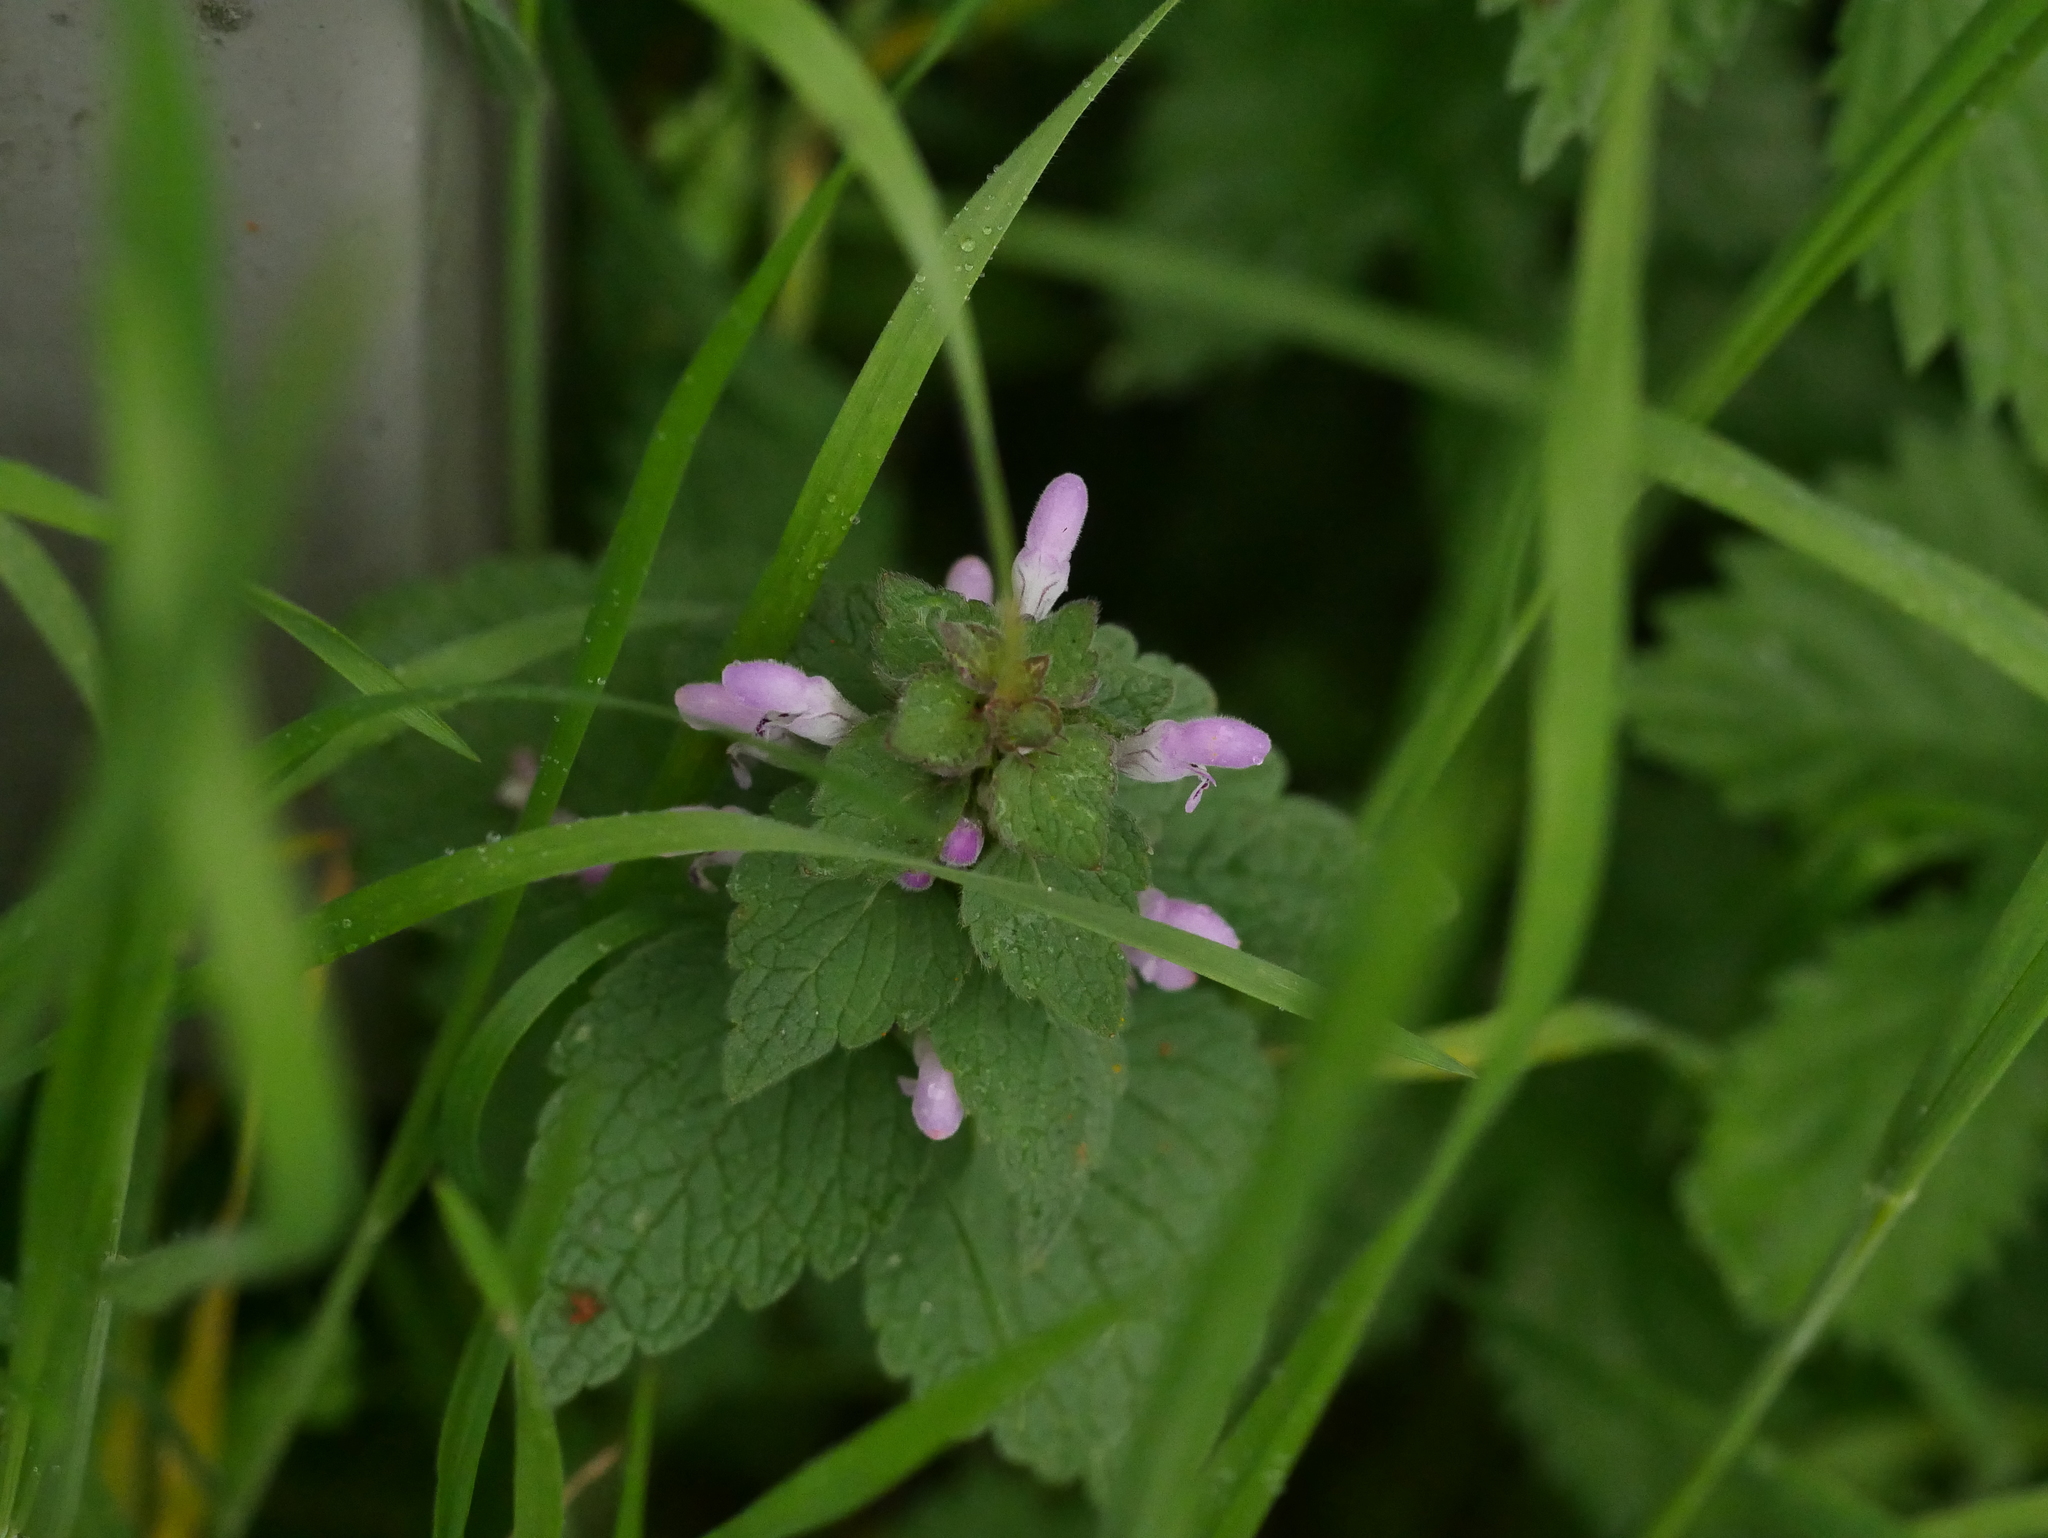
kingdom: Plantae
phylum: Tracheophyta
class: Magnoliopsida
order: Lamiales
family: Lamiaceae
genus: Lamium
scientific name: Lamium purpureum
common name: Red dead-nettle
